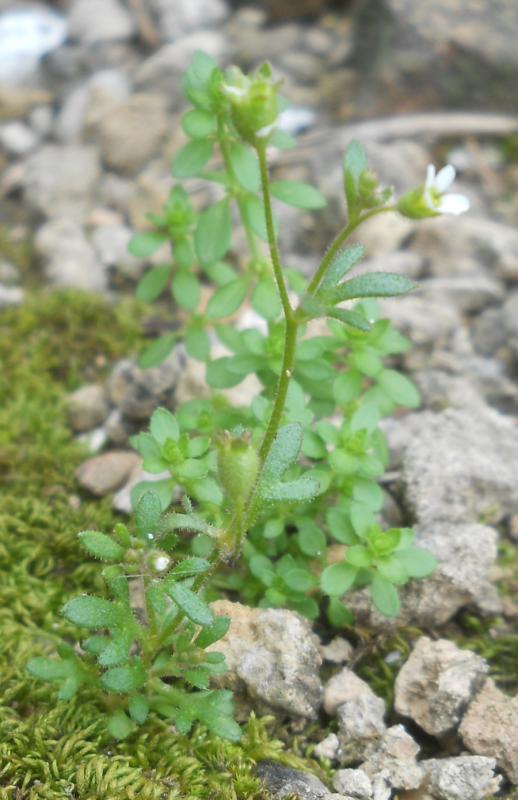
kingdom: Plantae
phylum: Tracheophyta
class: Magnoliopsida
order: Saxifragales
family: Saxifragaceae
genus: Saxifraga
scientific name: Saxifraga tridactylites
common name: Rue-leaved saxifrage
